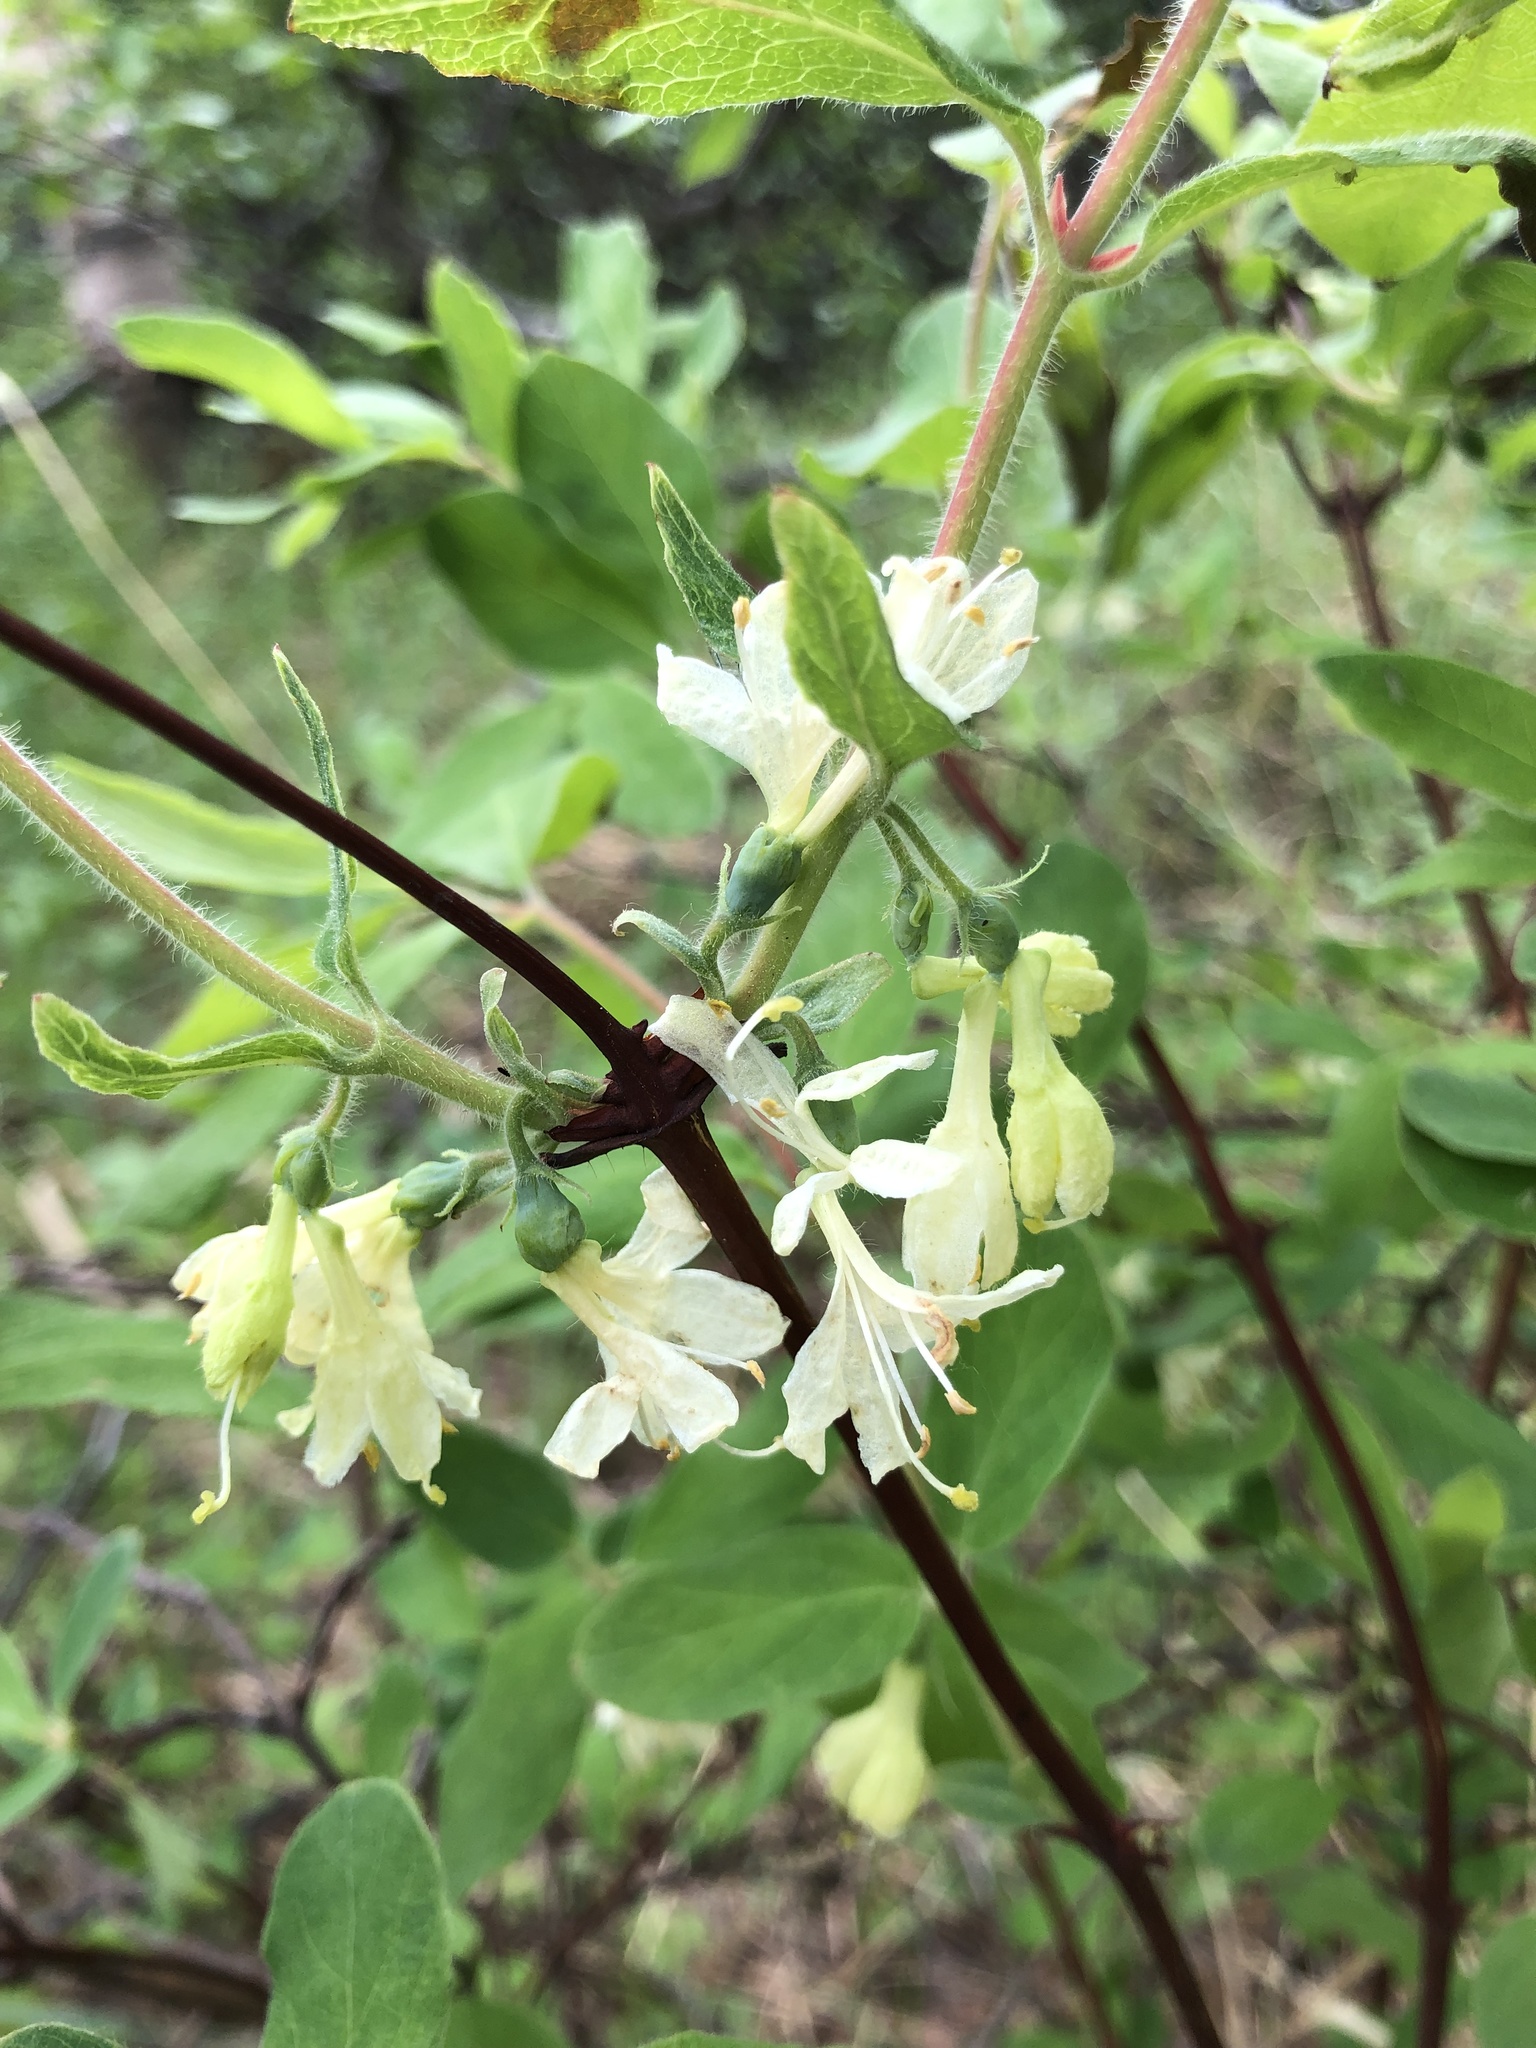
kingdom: Plantae
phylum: Tracheophyta
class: Magnoliopsida
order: Dipsacales
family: Caprifoliaceae
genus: Lonicera
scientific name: Lonicera caerulea
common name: Blue honeysuckle
